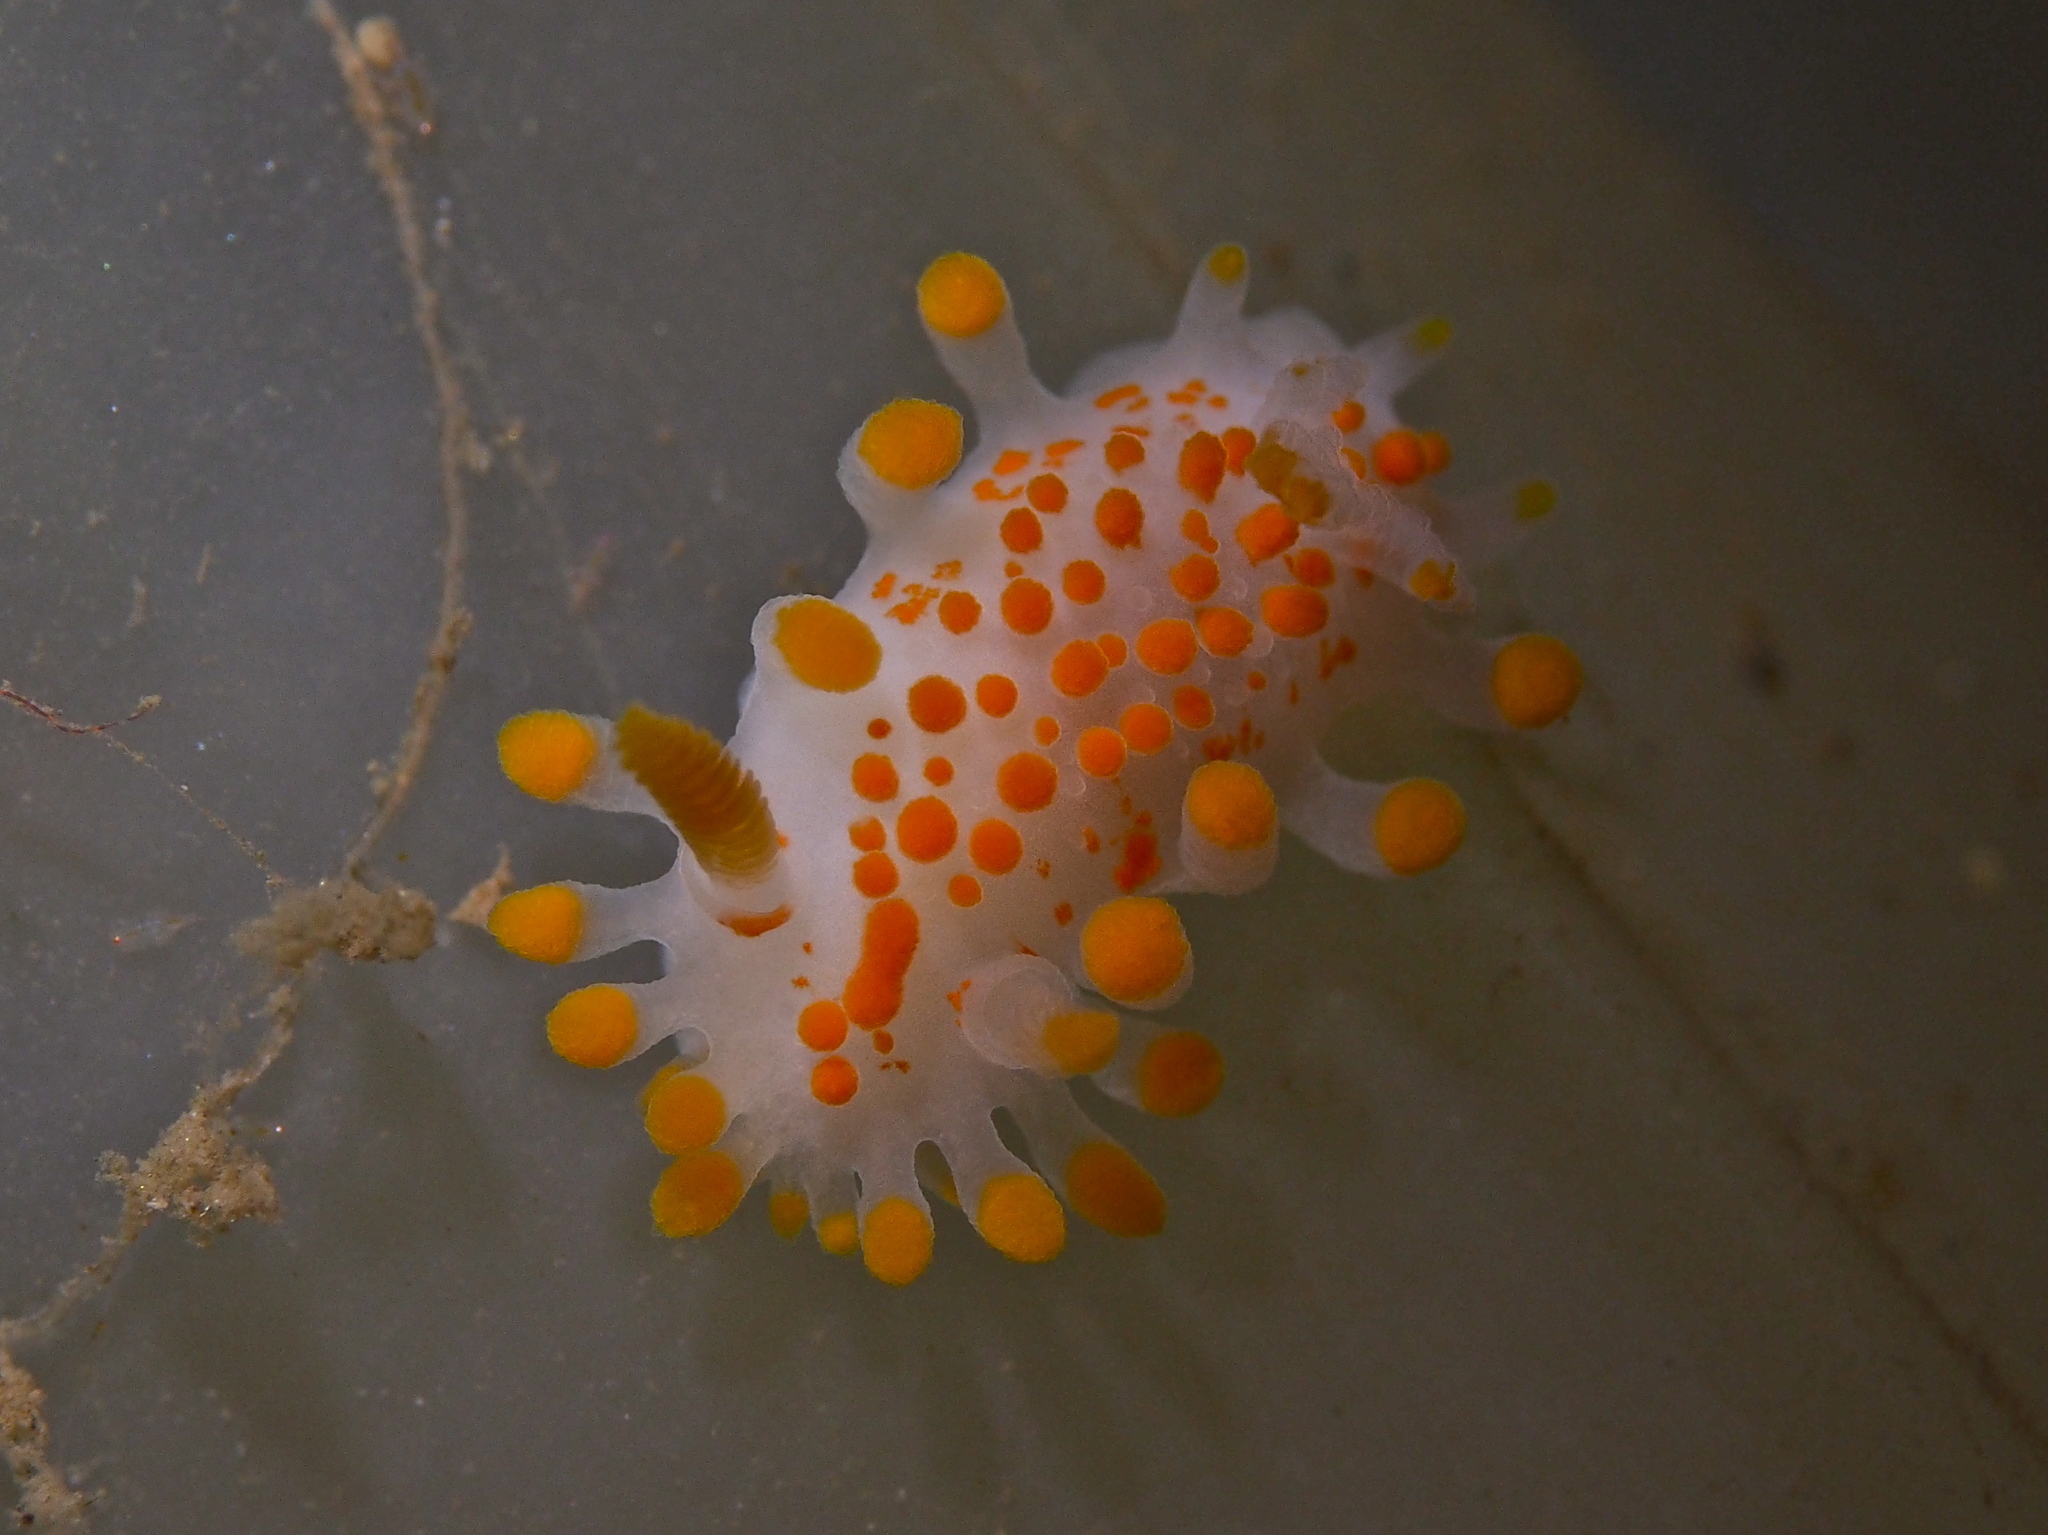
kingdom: Animalia
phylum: Mollusca
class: Gastropoda
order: Nudibranchia
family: Polyceridae
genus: Limacia
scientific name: Limacia clavigera
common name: Orange-clubbed sea slug
